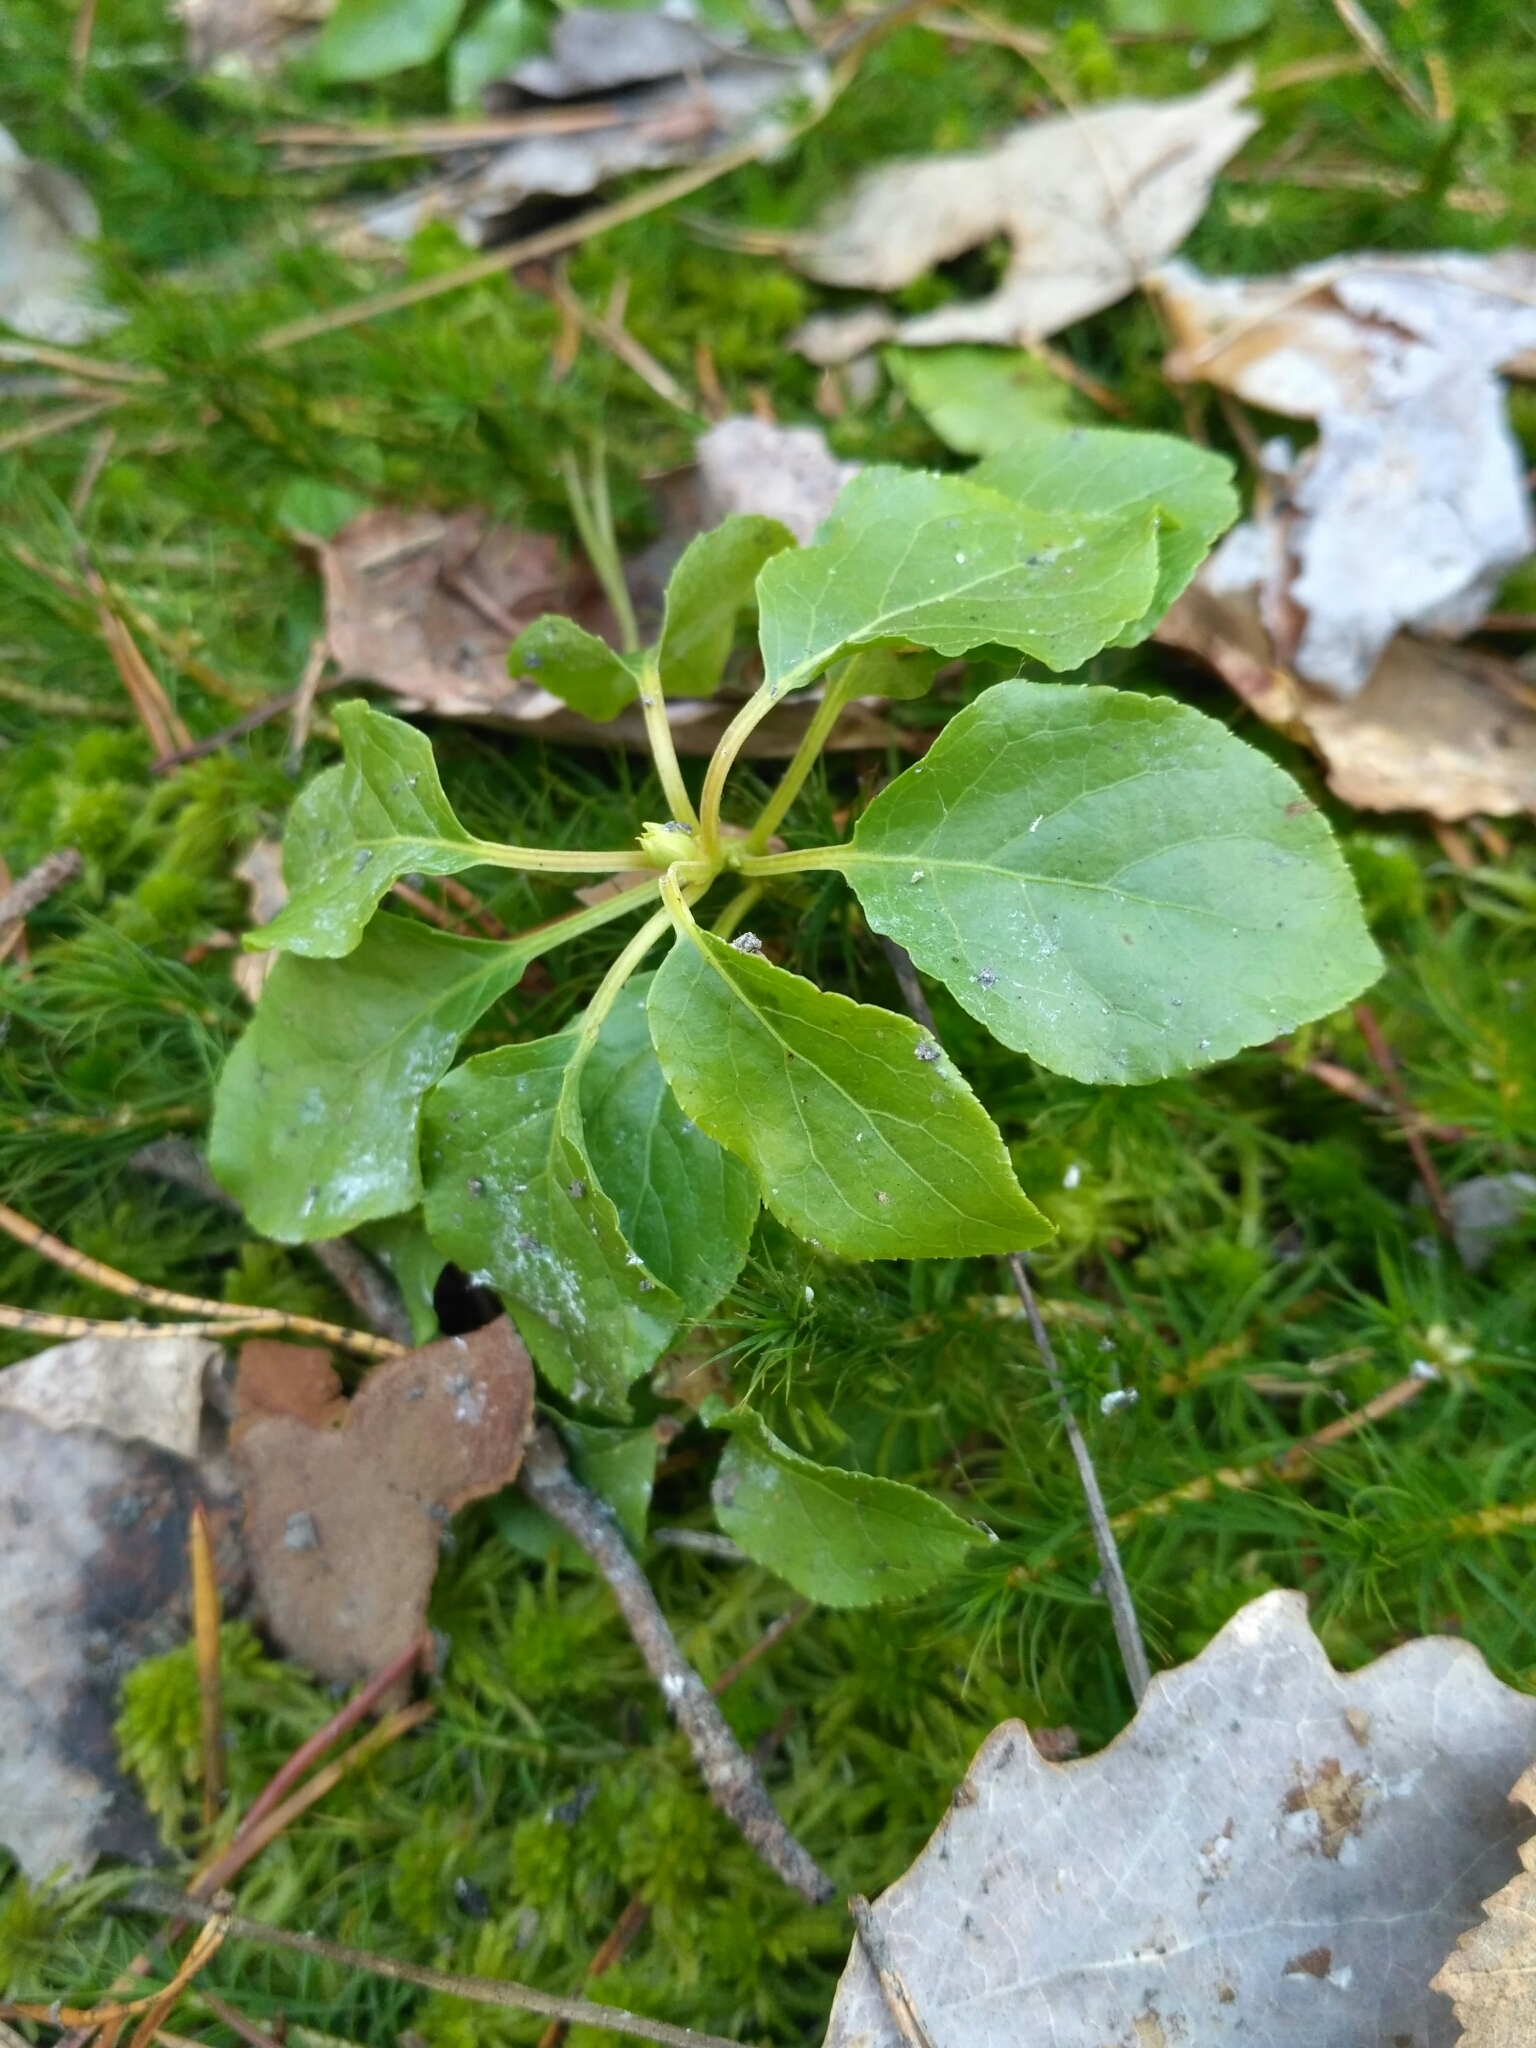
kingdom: Plantae
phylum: Tracheophyta
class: Magnoliopsida
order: Ericales
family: Ericaceae
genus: Orthilia
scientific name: Orthilia secunda
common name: One-sided orthilia
